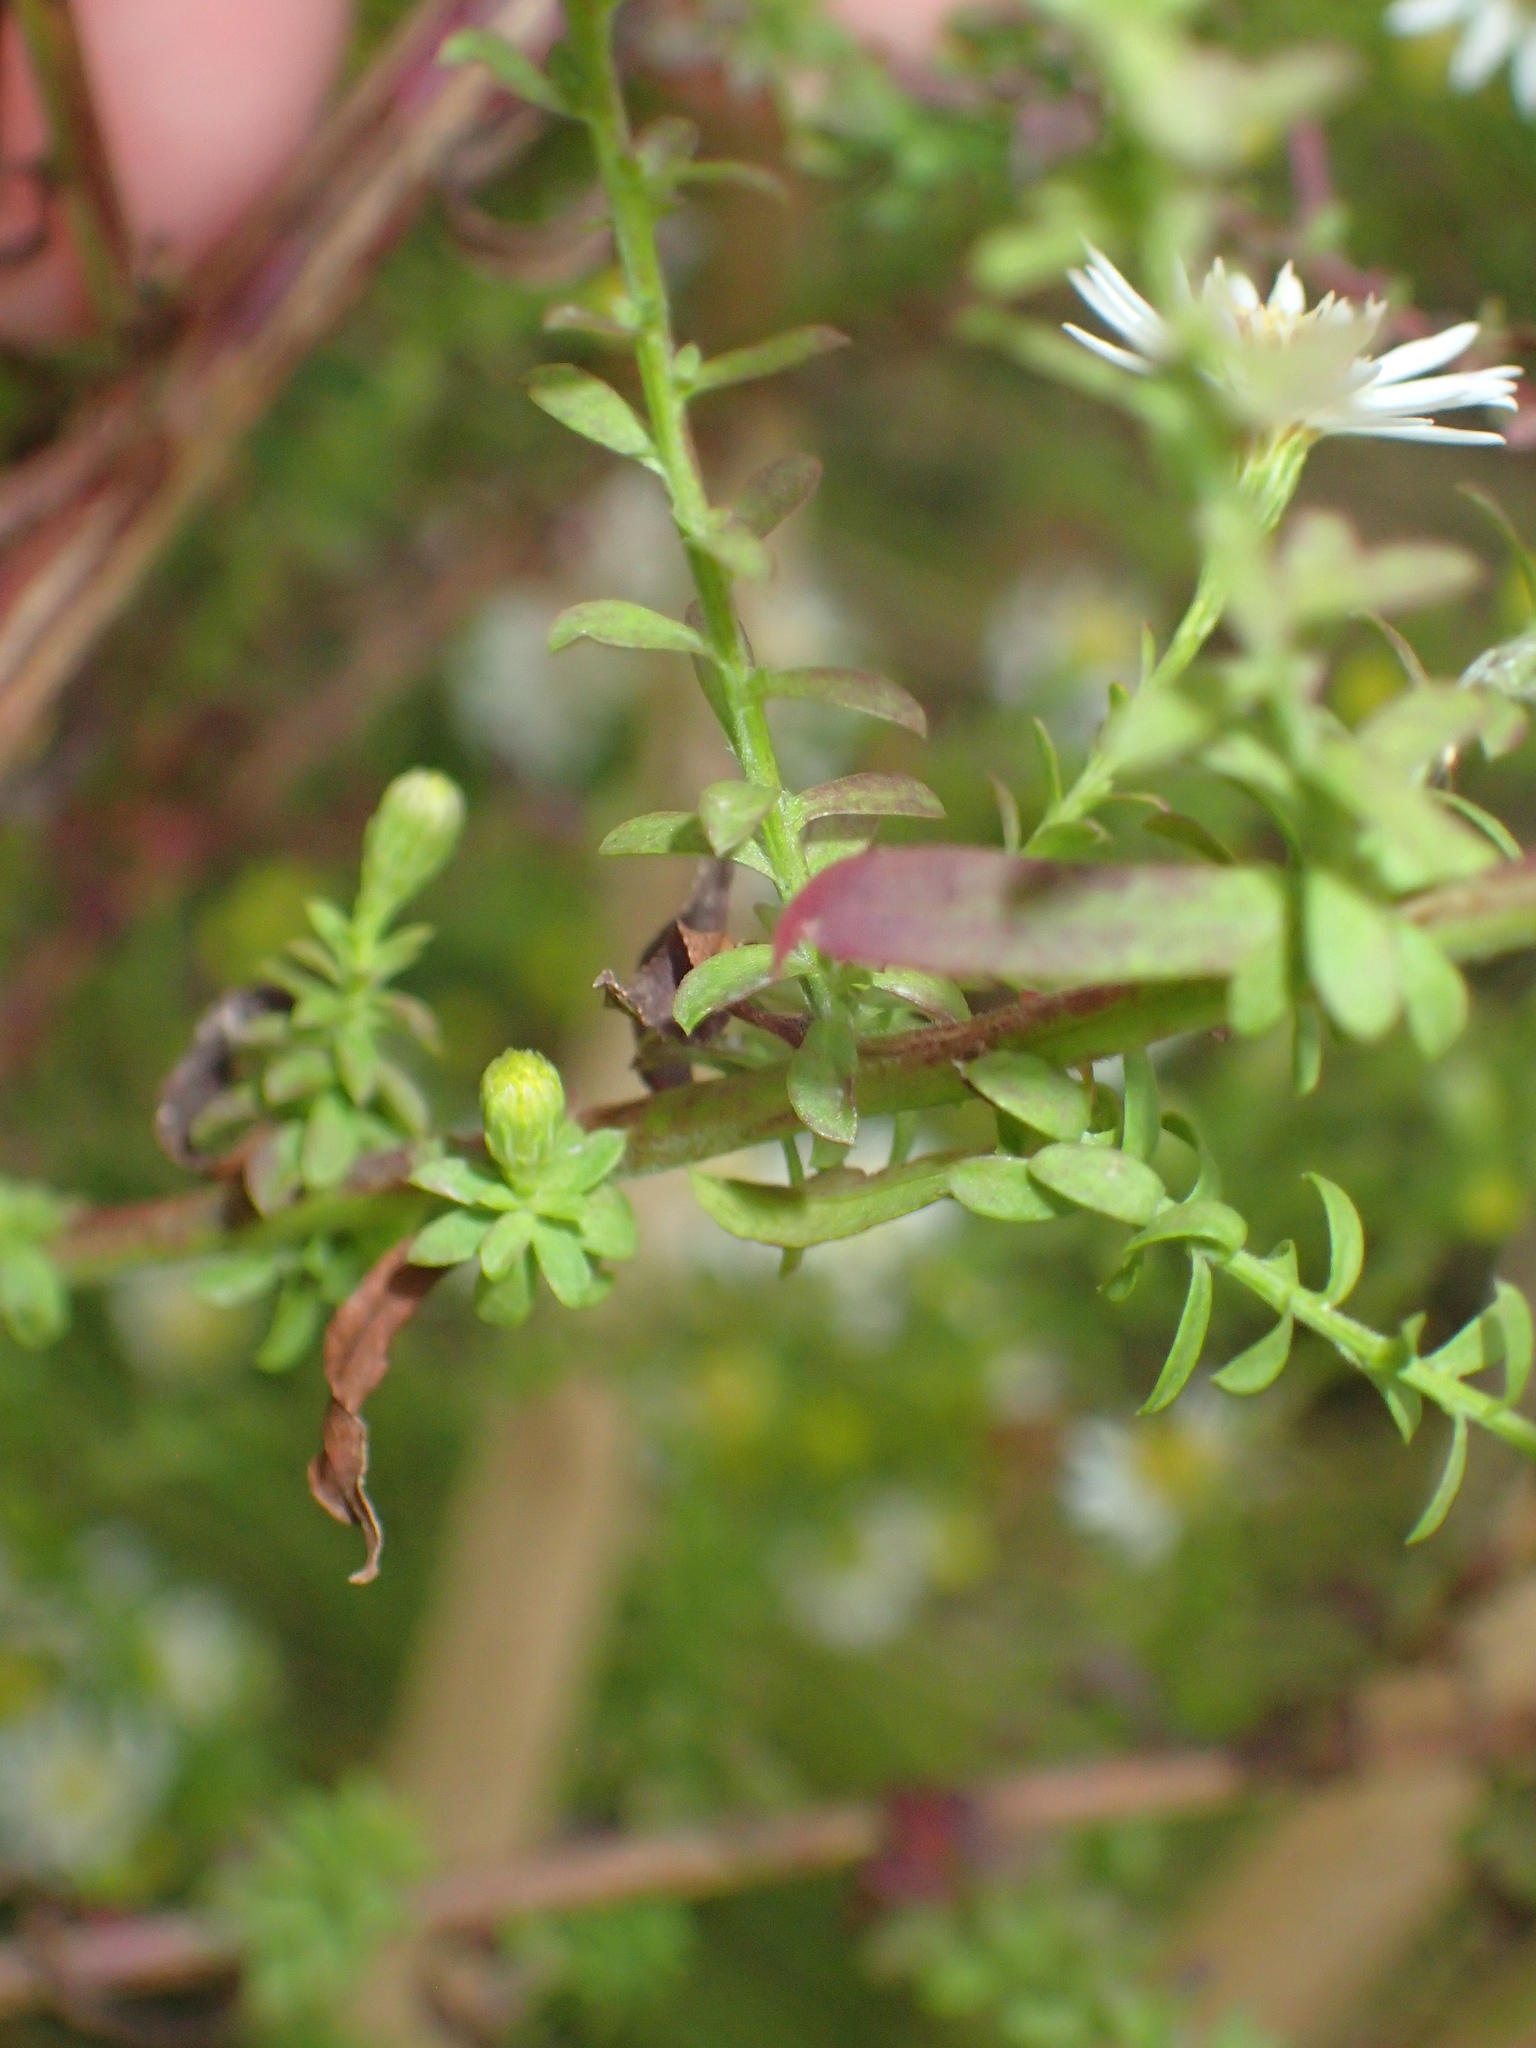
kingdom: Plantae
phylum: Tracheophyta
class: Magnoliopsida
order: Asterales
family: Asteraceae
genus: Symphyotrichum
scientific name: Symphyotrichum racemosum
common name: Small white aster
